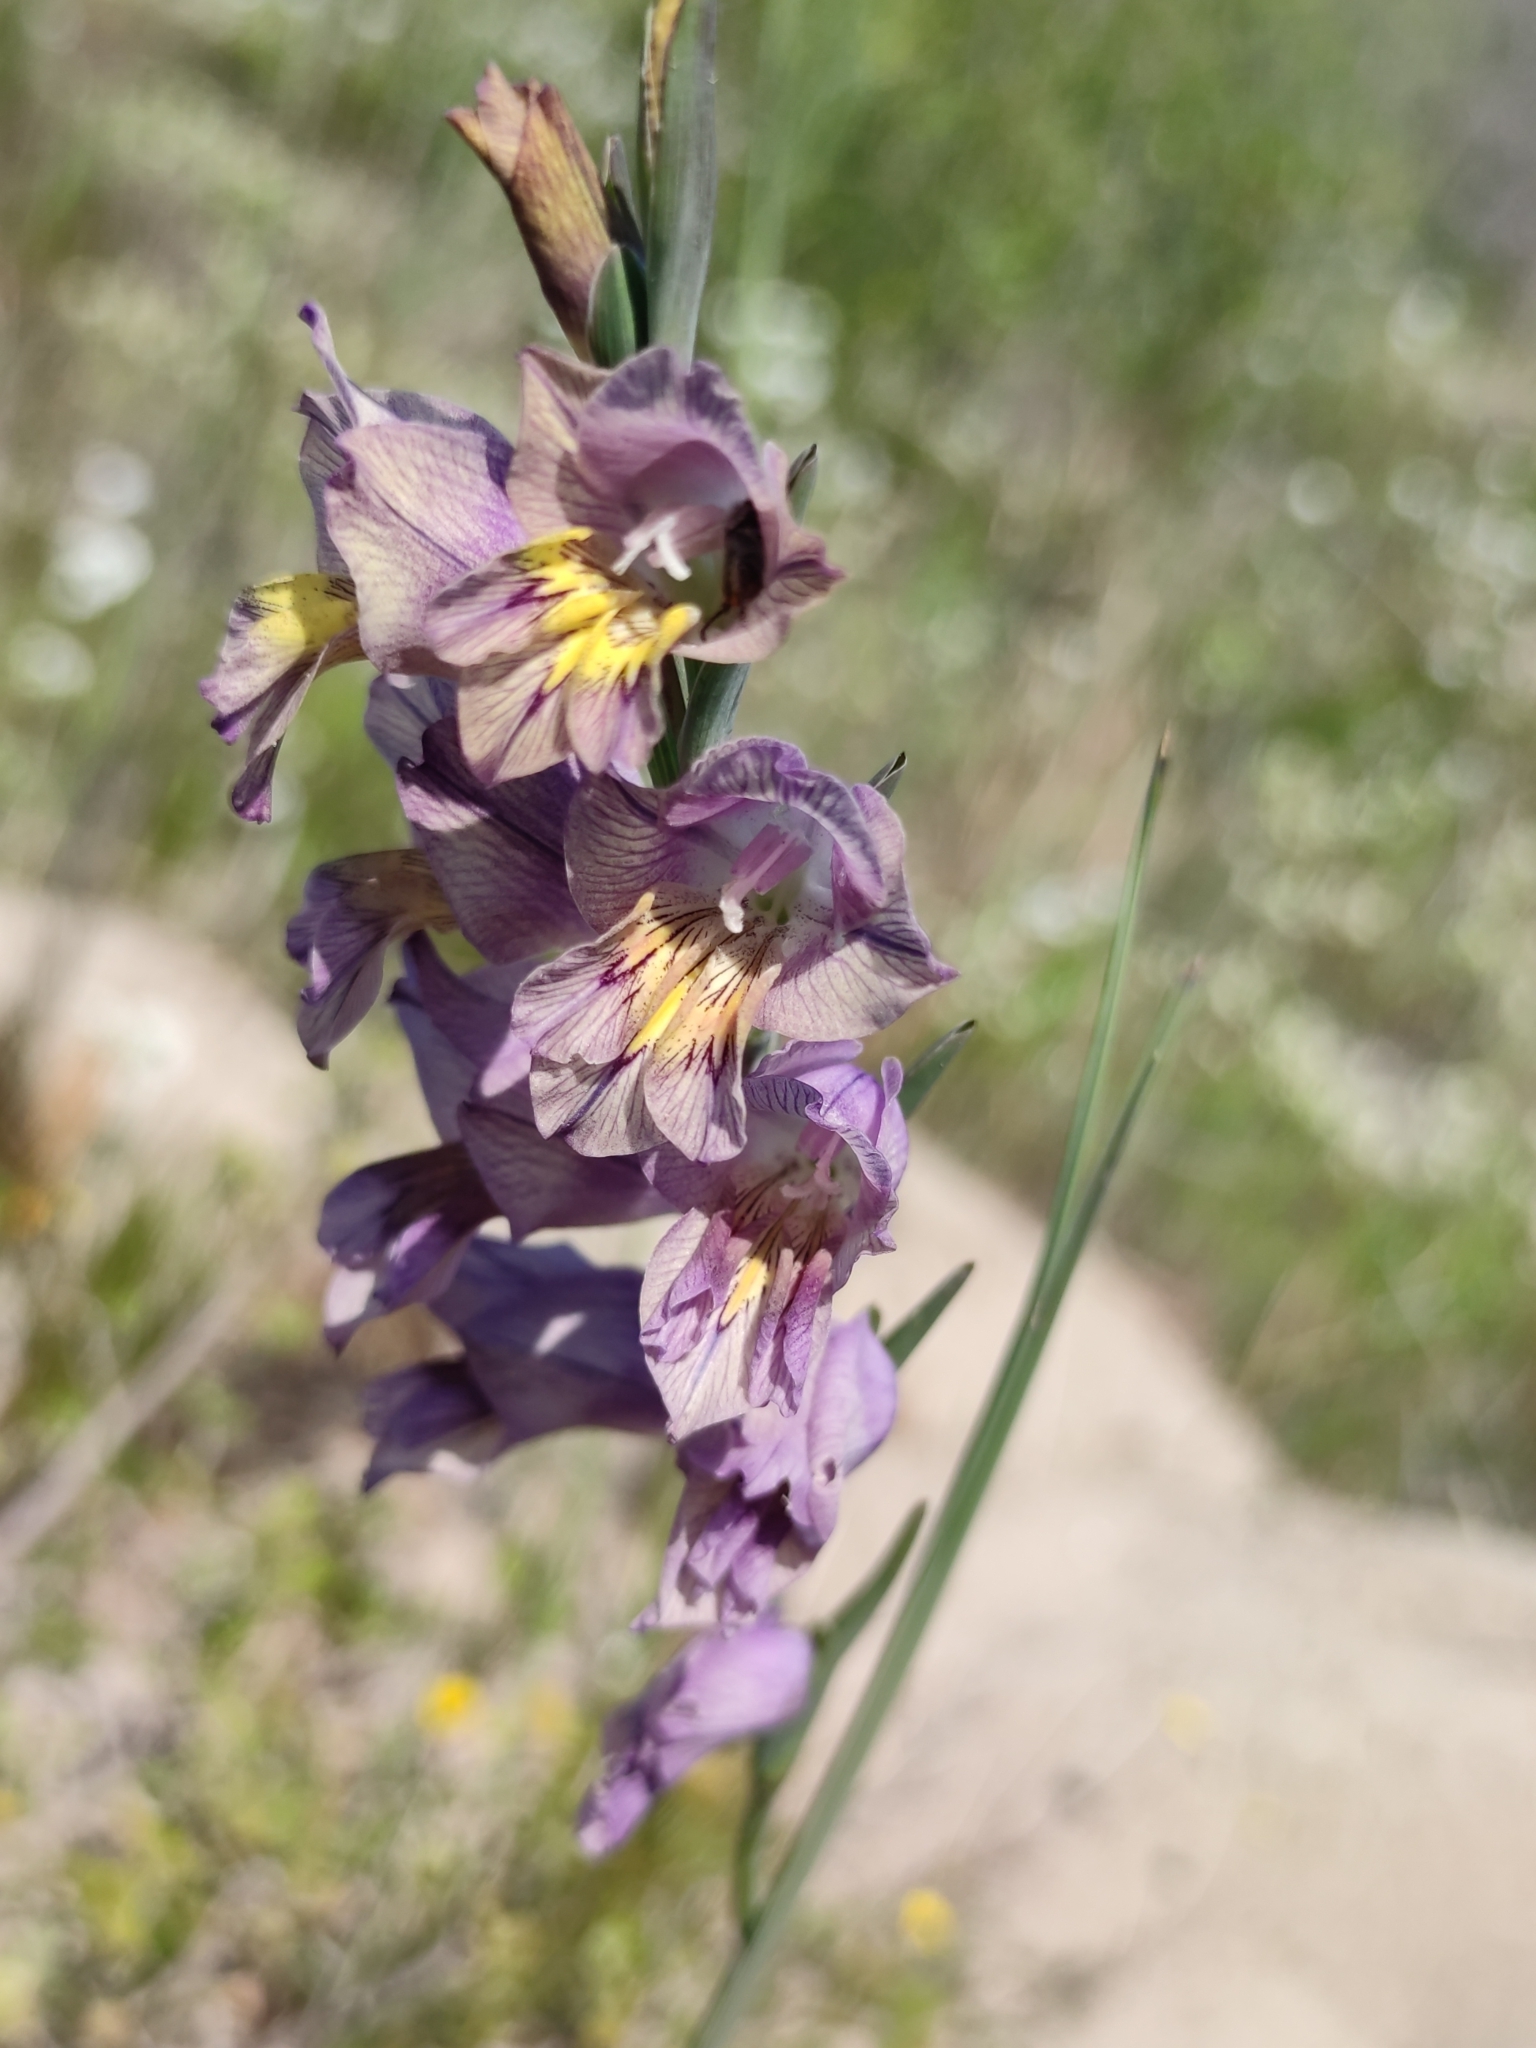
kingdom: Plantae
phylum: Tracheophyta
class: Liliopsida
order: Asparagales
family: Iridaceae
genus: Gladiolus
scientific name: Gladiolus carinatus
